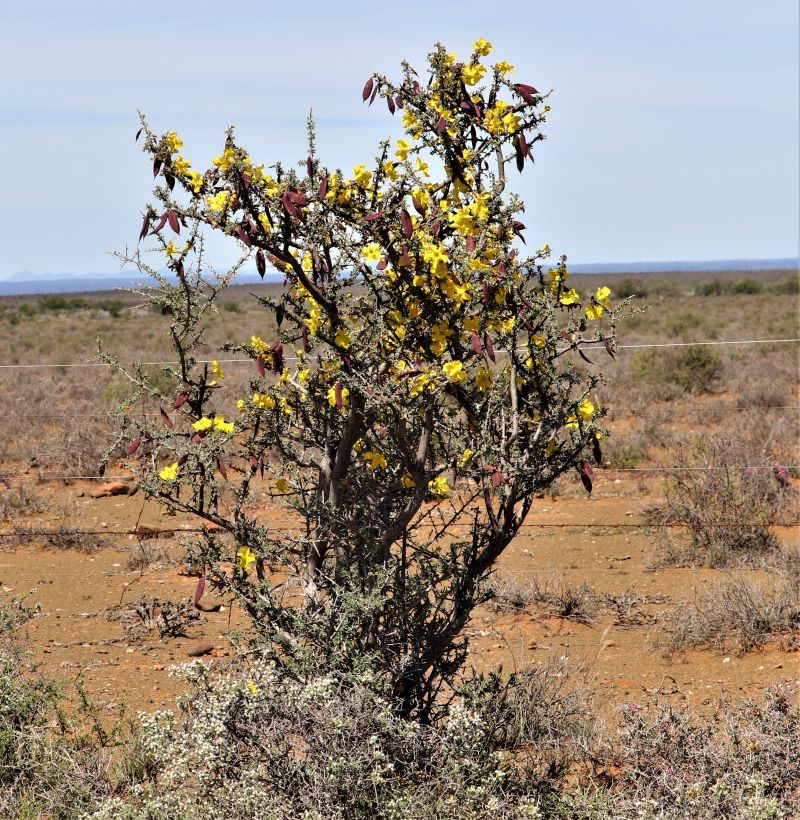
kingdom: Plantae
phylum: Tracheophyta
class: Magnoliopsida
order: Lamiales
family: Bignoniaceae
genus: Rhigozum
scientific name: Rhigozum obovatum
